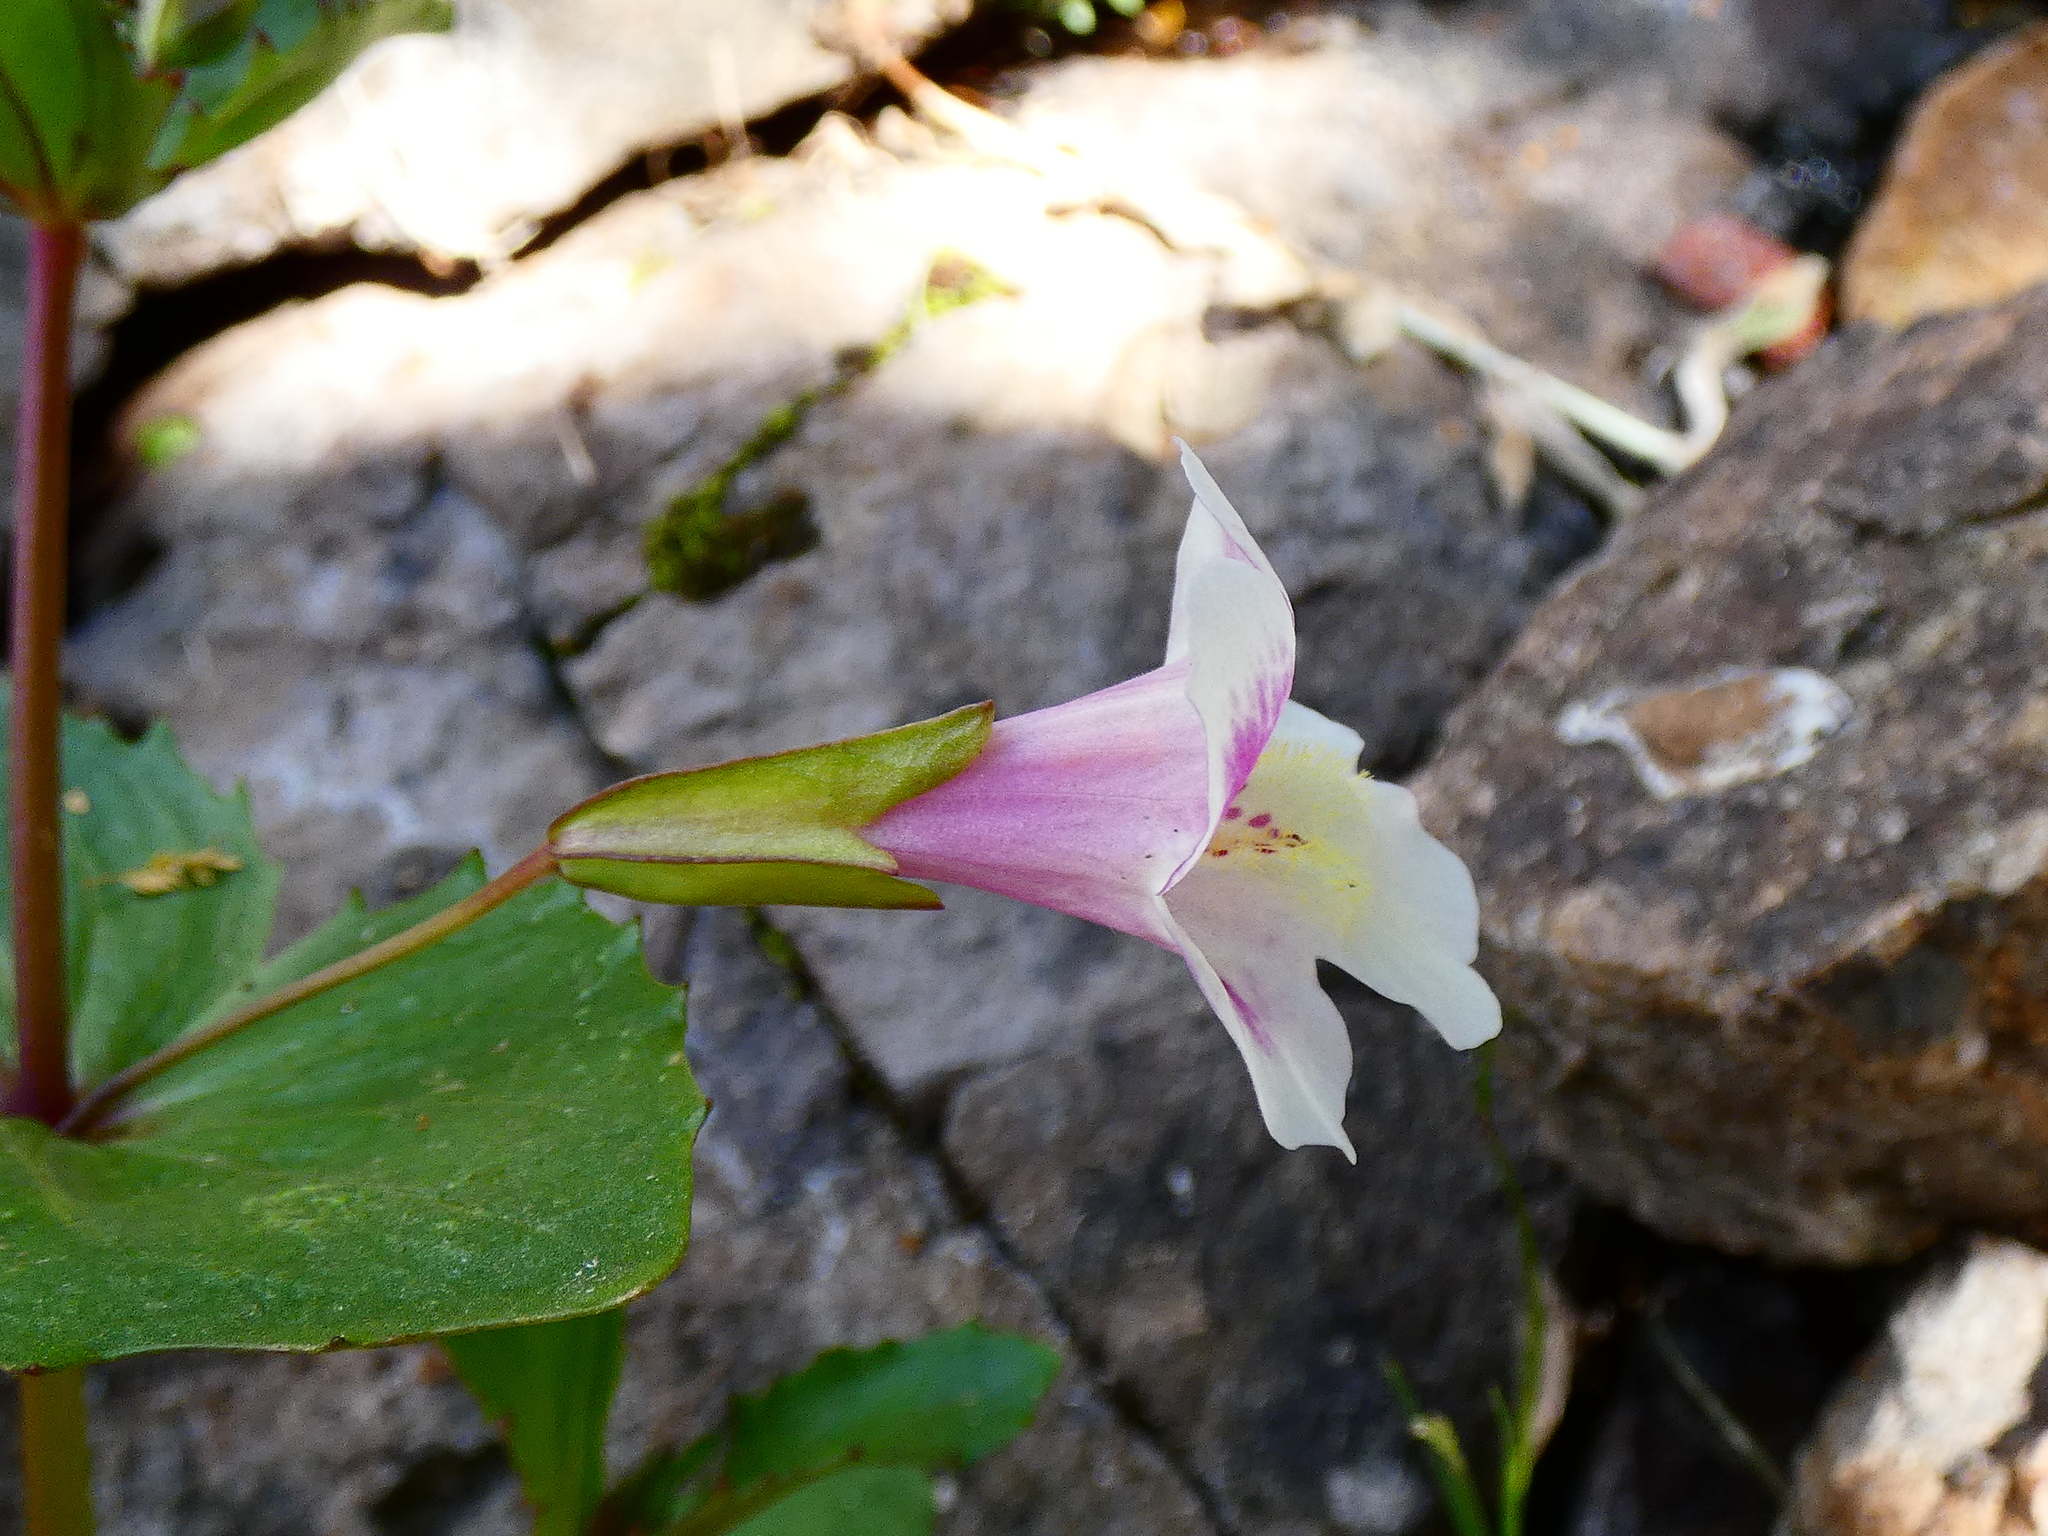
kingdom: Plantae
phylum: Tracheophyta
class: Magnoliopsida
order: Lamiales
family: Phrymaceae
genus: Erythranthe
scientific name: Erythranthe naiandina
